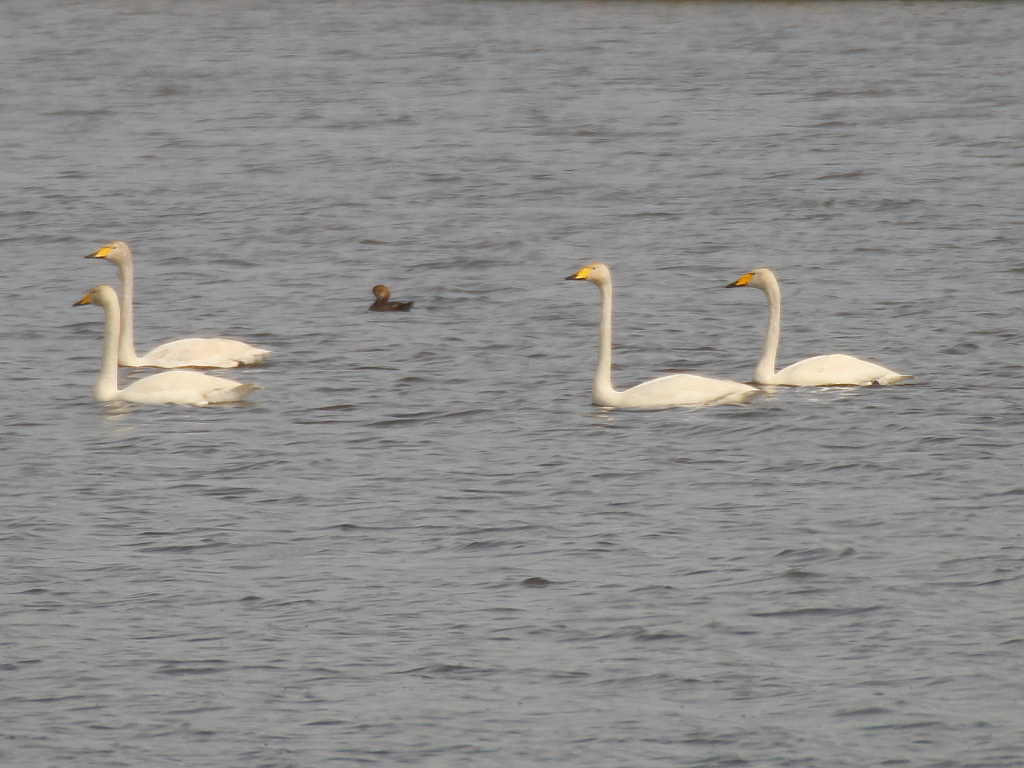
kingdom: Animalia
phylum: Chordata
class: Aves
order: Anseriformes
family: Anatidae
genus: Cygnus
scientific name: Cygnus cygnus
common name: Whooper swan
